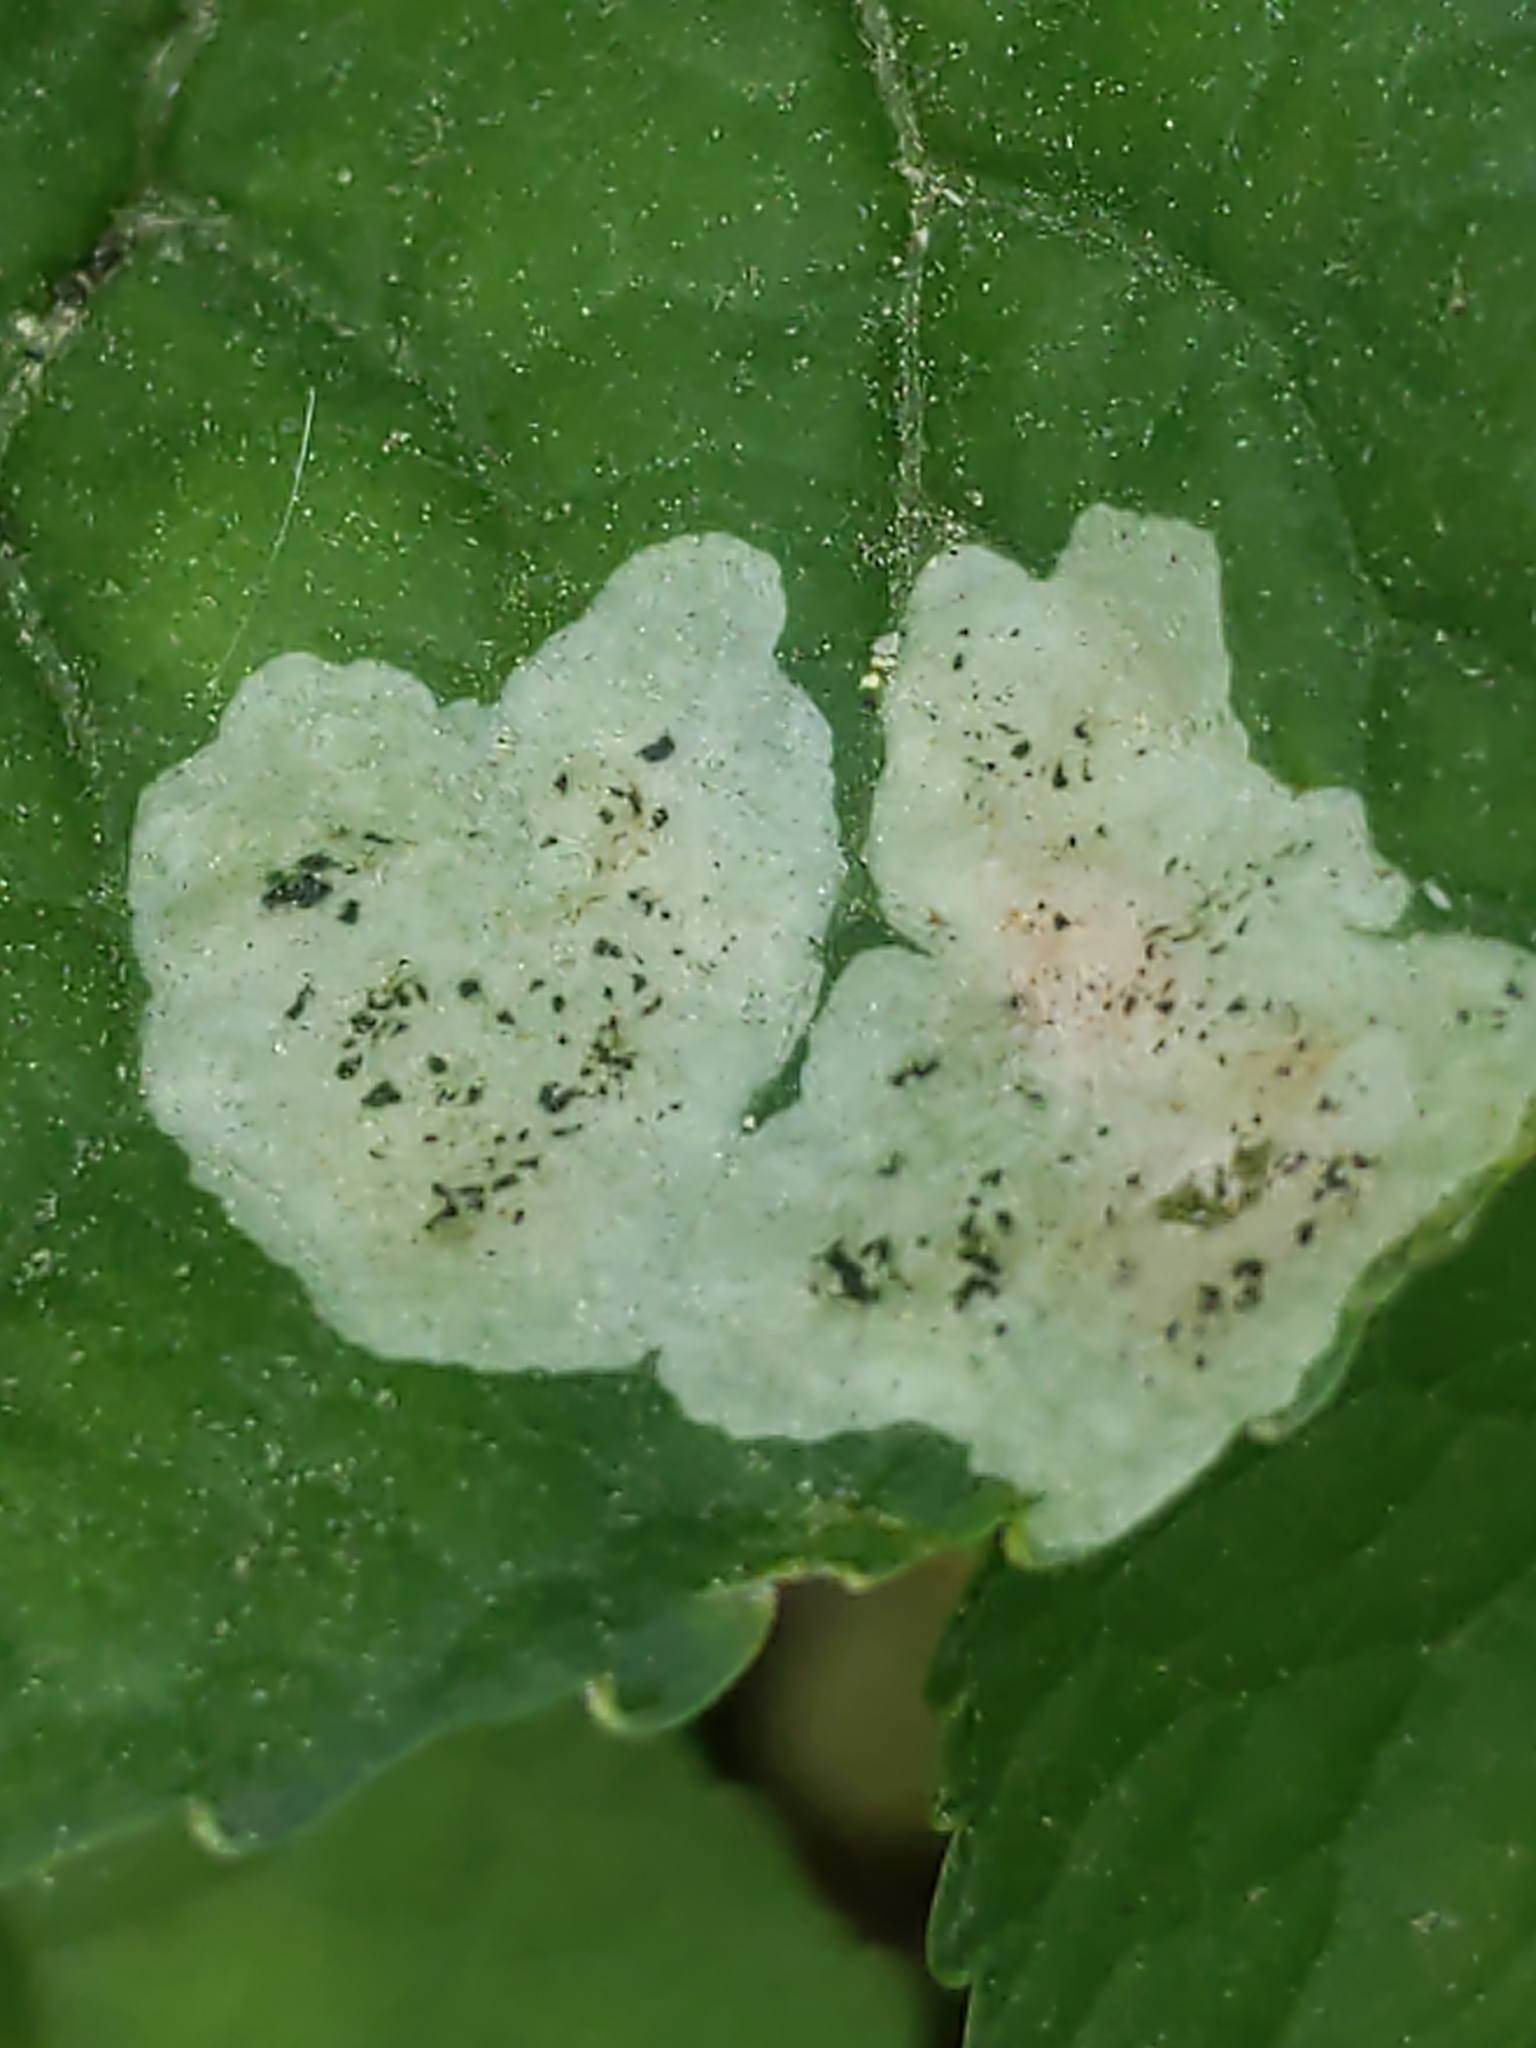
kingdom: Animalia
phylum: Arthropoda
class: Insecta
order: Diptera
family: Agromyzidae
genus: Liriomyza
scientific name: Liriomyza violivora
